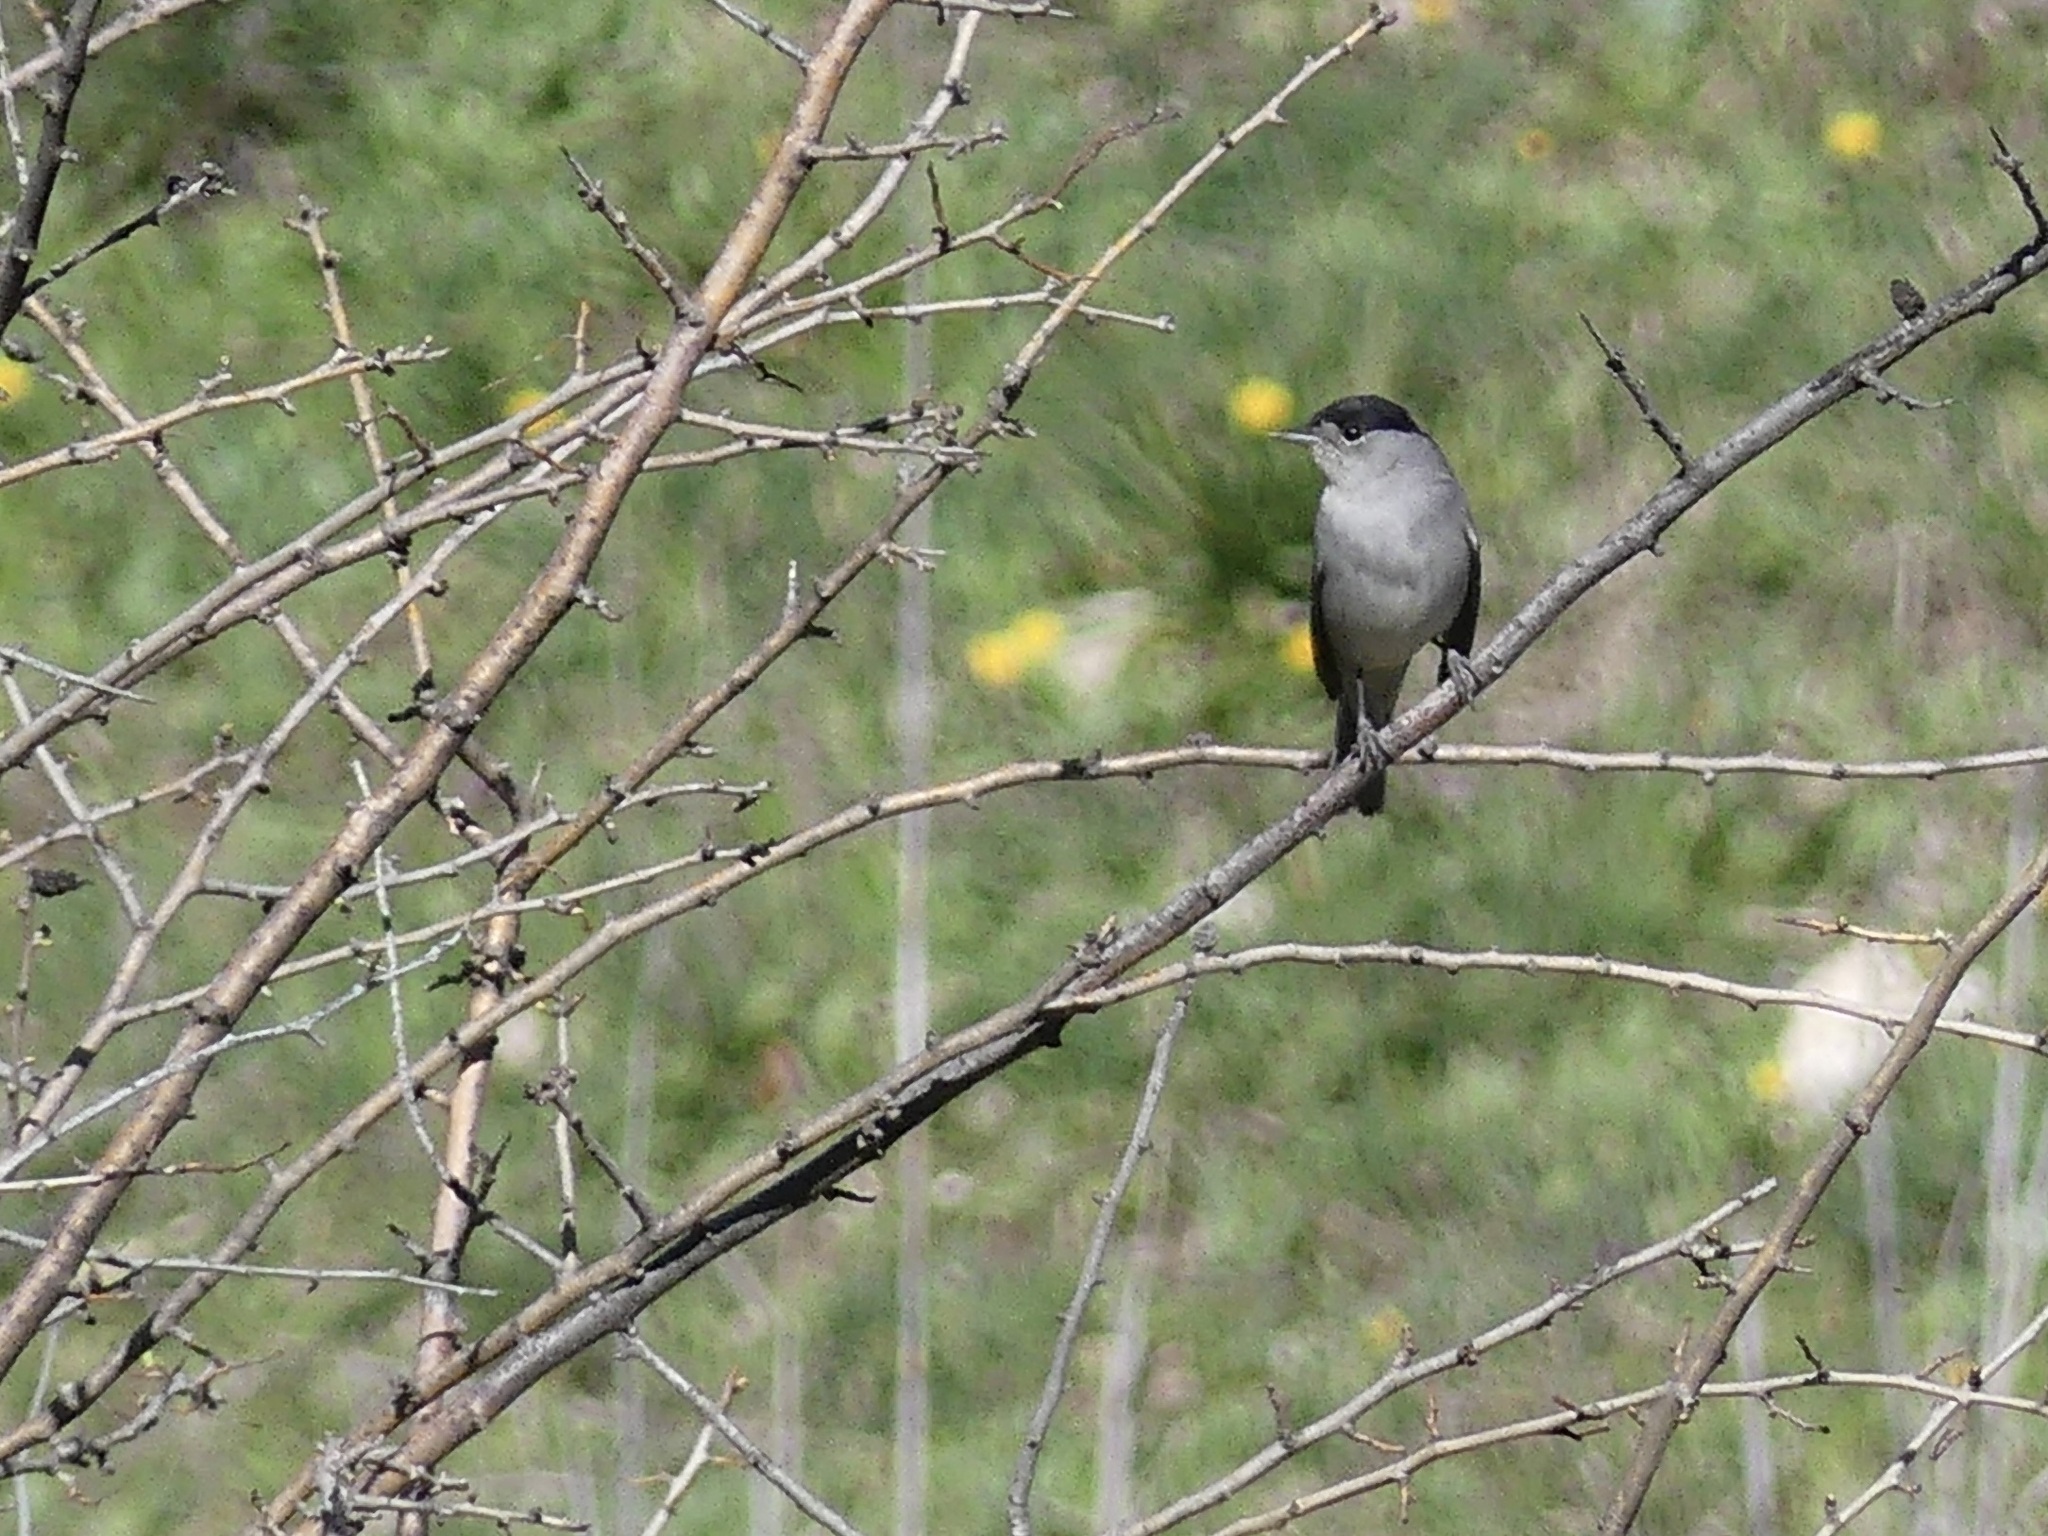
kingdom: Animalia
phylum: Chordata
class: Aves
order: Passeriformes
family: Sylviidae
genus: Sylvia
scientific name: Sylvia atricapilla
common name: Eurasian blackcap
